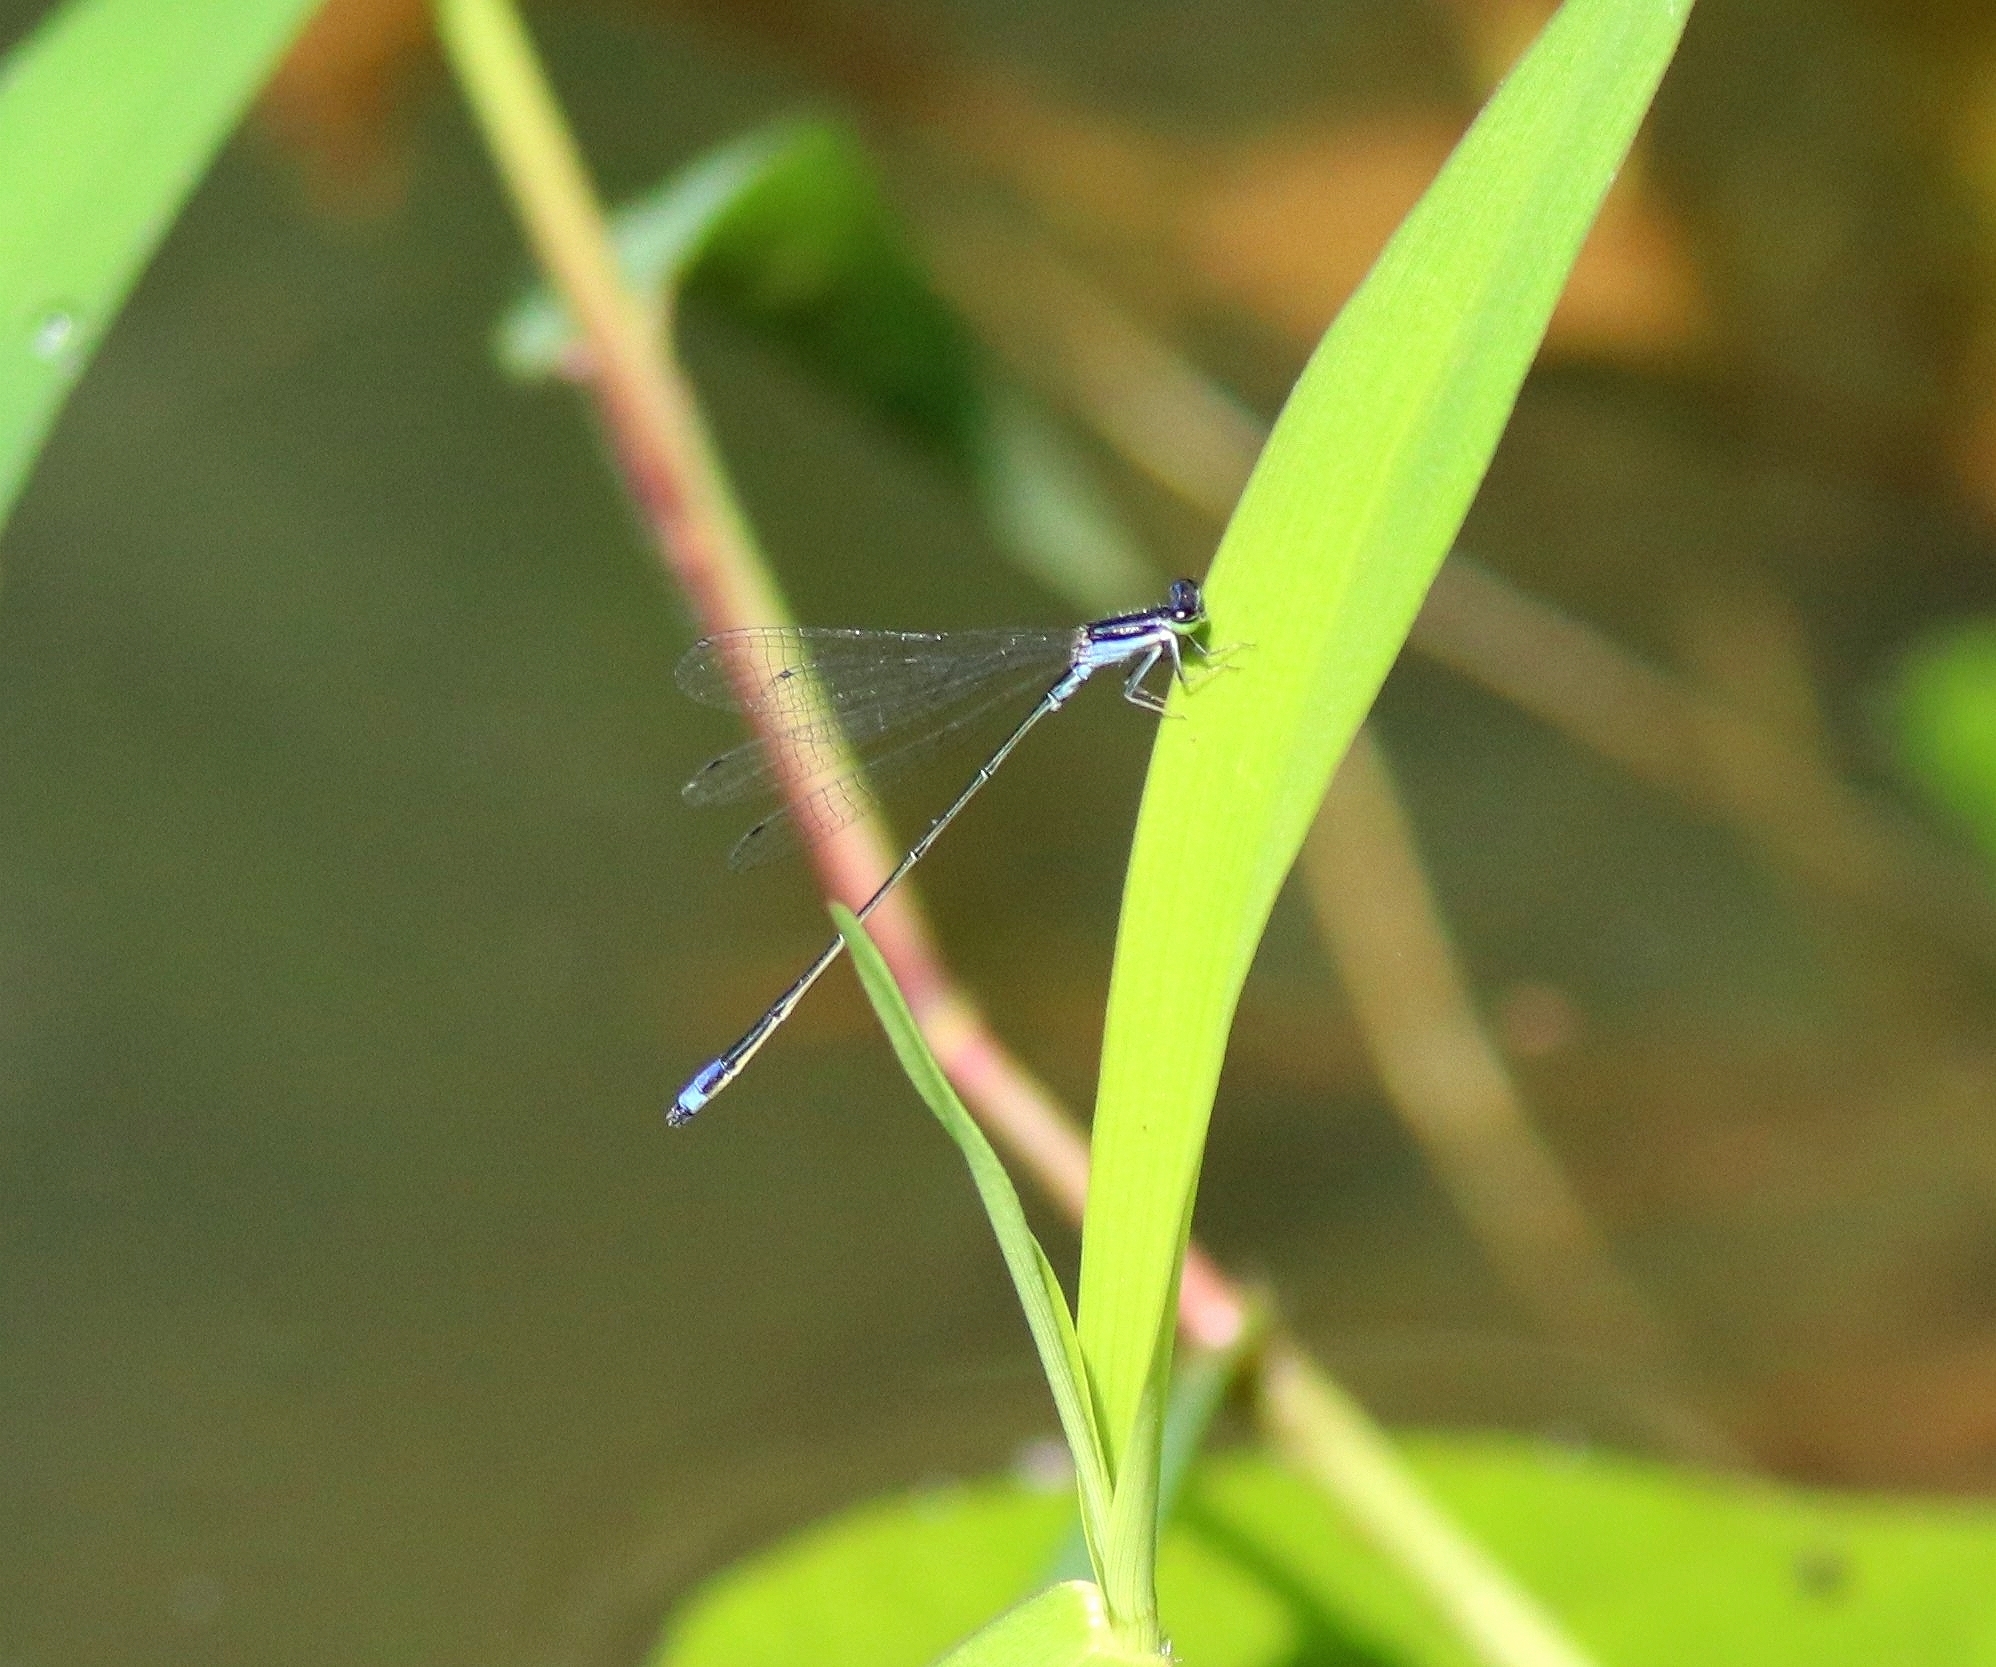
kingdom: Animalia
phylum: Arthropoda
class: Insecta
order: Odonata
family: Coenagrionidae
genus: Aciagrion
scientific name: Aciagrion approximans
